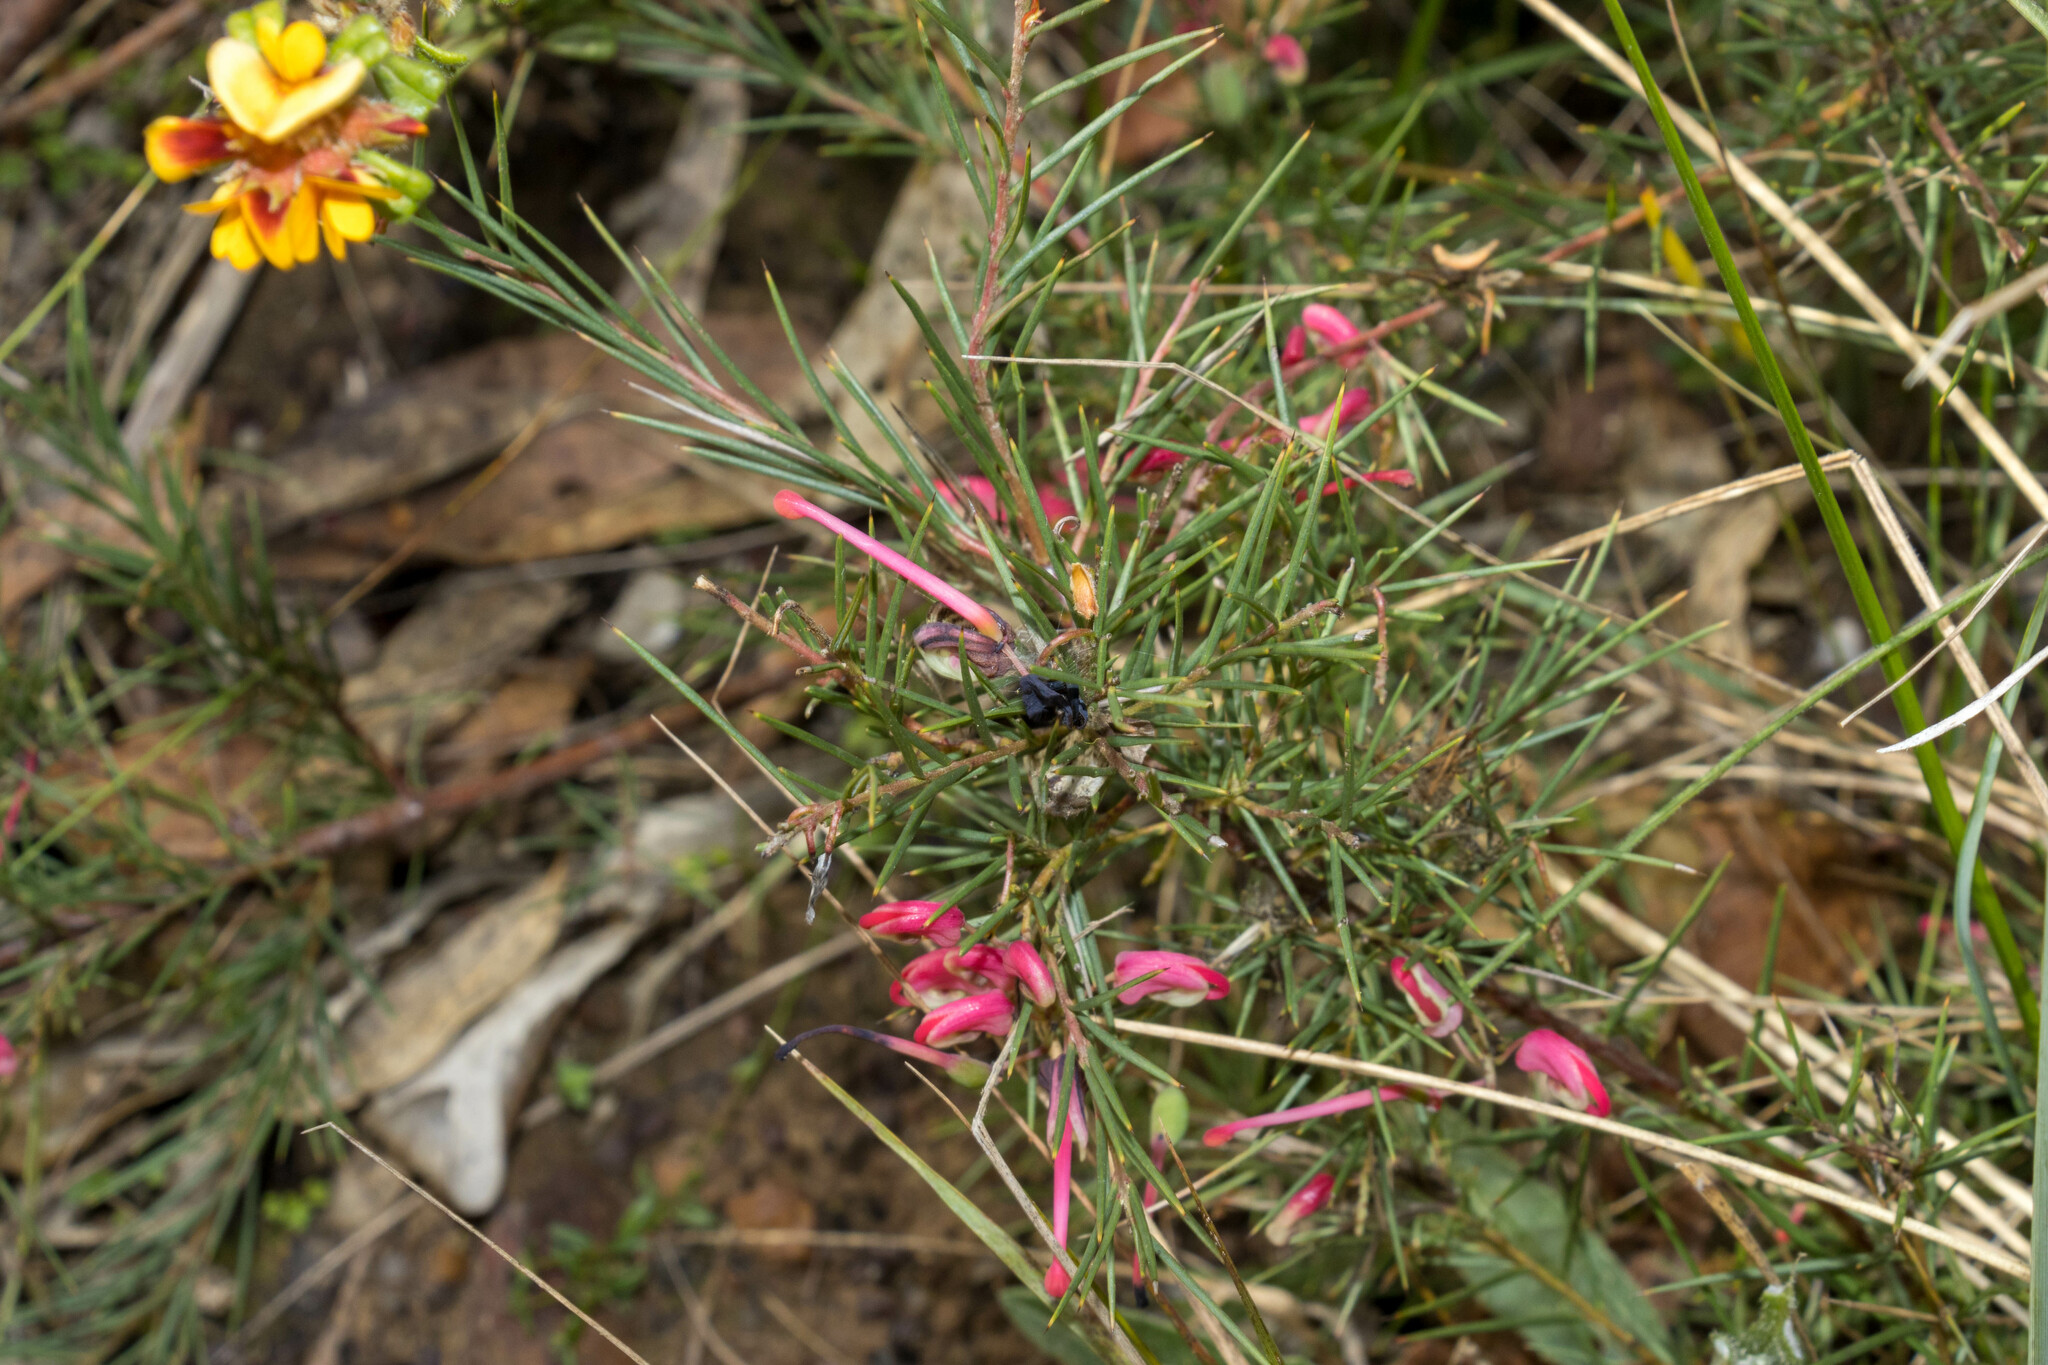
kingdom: Plantae
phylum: Tracheophyta
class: Magnoliopsida
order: Proteales
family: Proteaceae
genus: Grevillea
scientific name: Grevillea rosmarinifolia
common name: Rosemary grevillea
